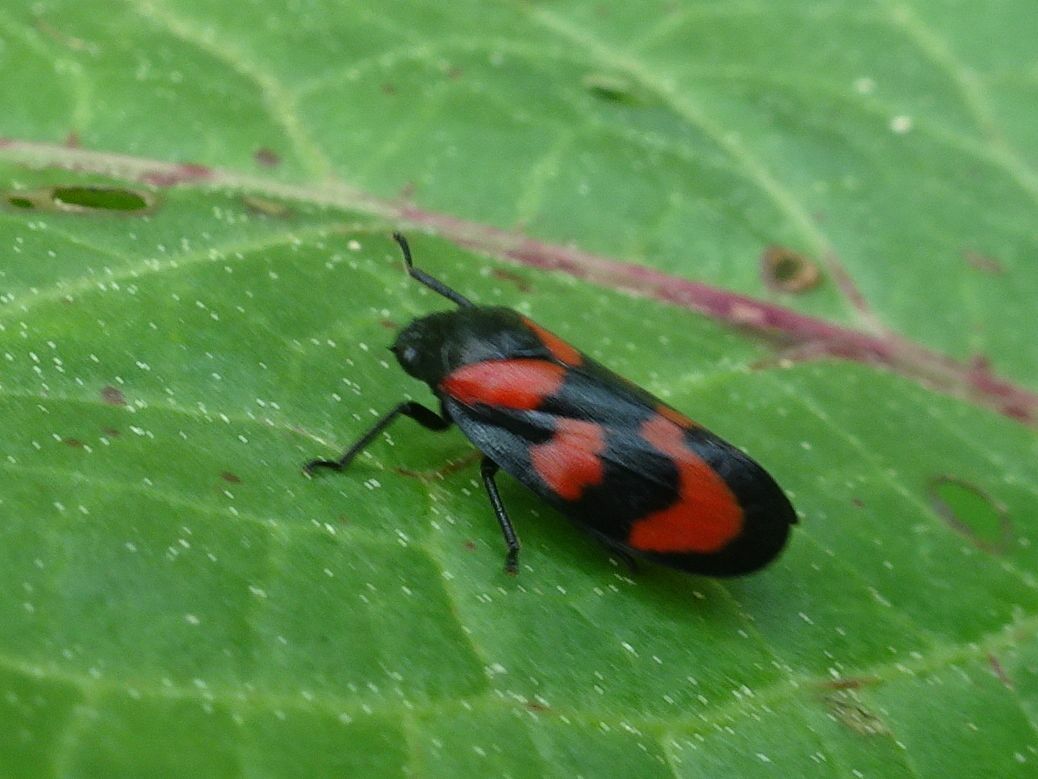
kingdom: Animalia
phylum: Arthropoda
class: Insecta
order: Hemiptera
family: Cercopidae
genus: Cercopis
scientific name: Cercopis vulnerata
